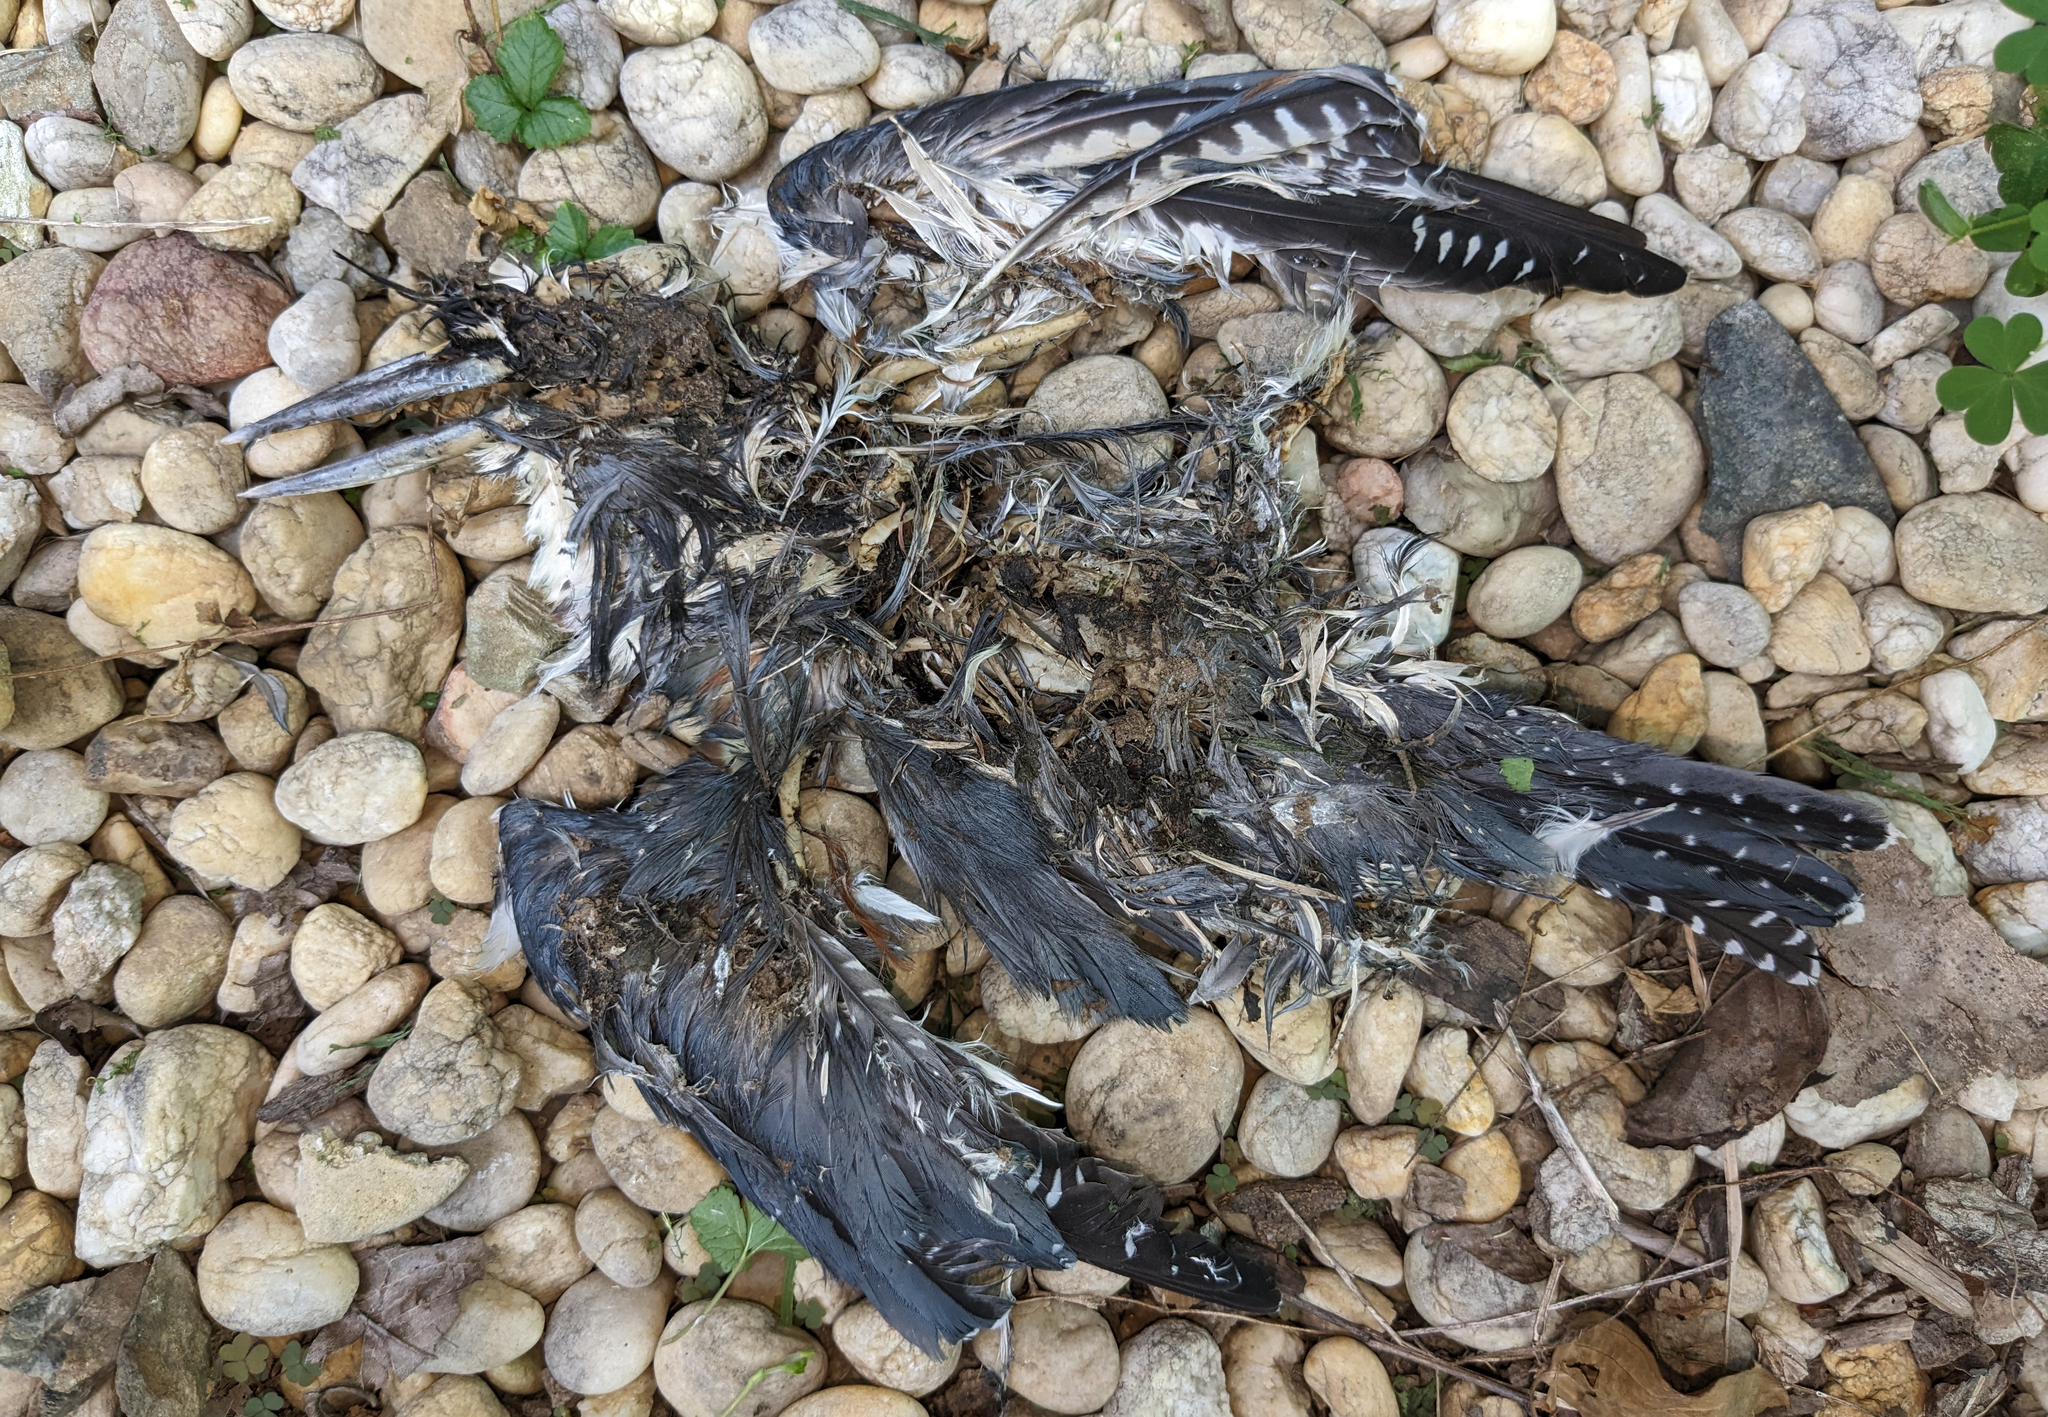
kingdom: Animalia
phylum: Chordata
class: Aves
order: Coraciiformes
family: Alcedinidae
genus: Megaceryle
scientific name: Megaceryle alcyon
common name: Belted kingfisher
